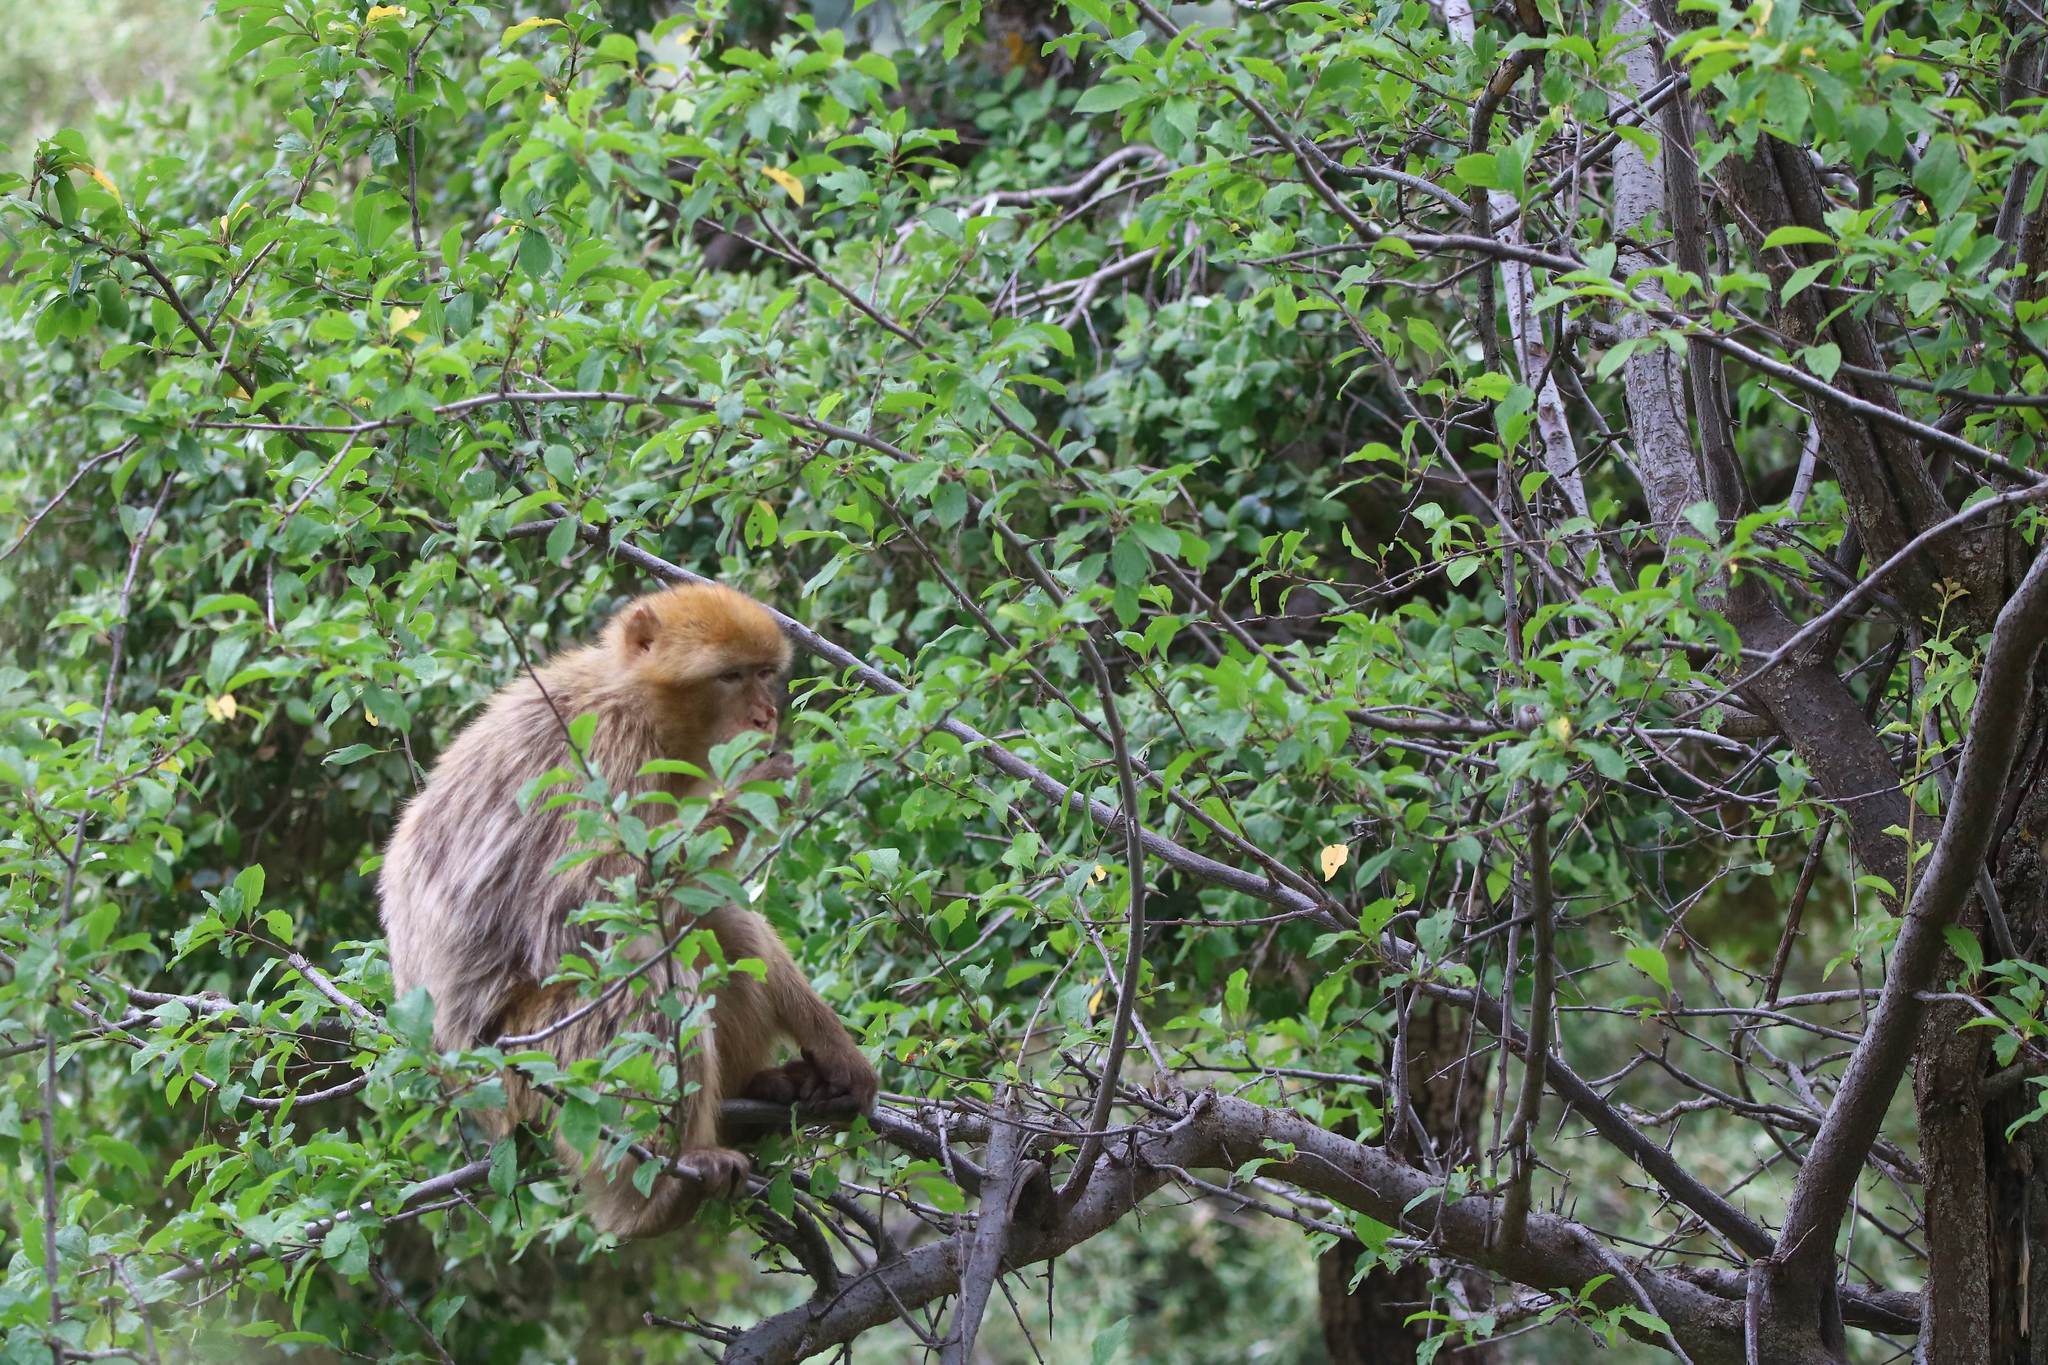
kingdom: Animalia
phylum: Chordata
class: Mammalia
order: Primates
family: Cercopithecidae
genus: Macaca
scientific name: Macaca sylvanus
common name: Barbary macaque
